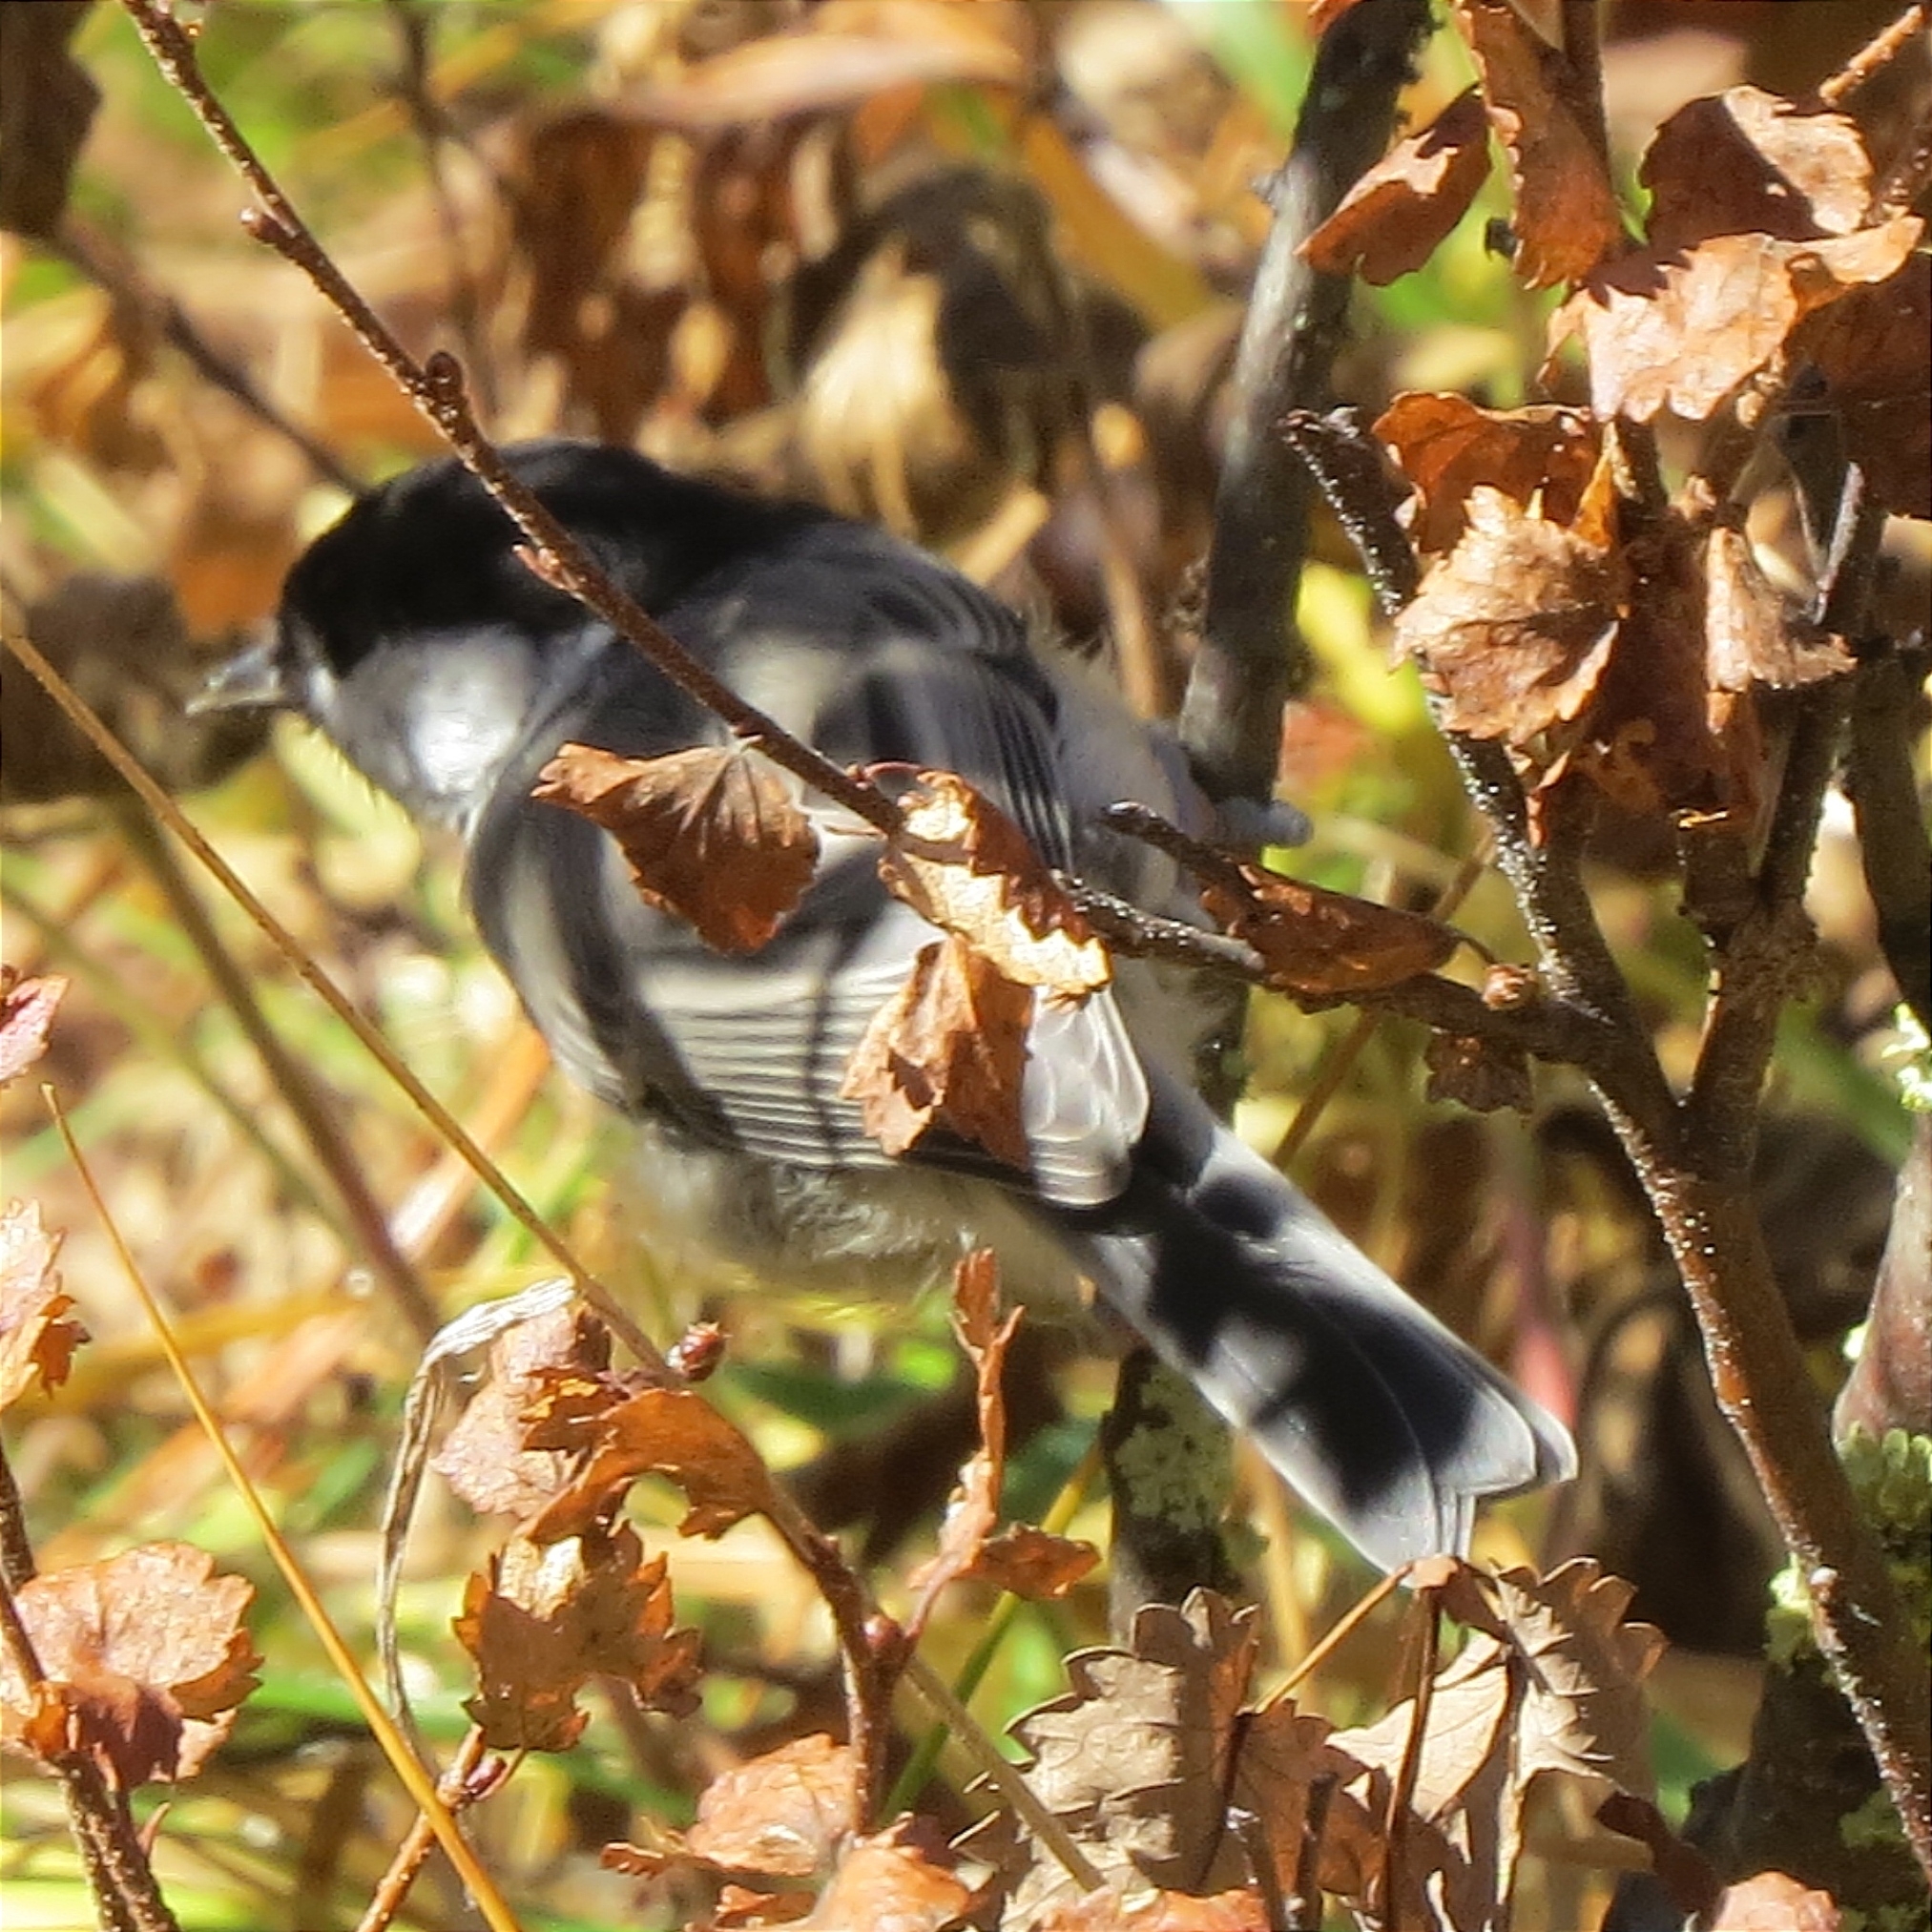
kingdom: Animalia
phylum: Chordata
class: Aves
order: Passeriformes
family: Paridae
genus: Poecile
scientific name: Poecile montanus
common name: Willow tit
